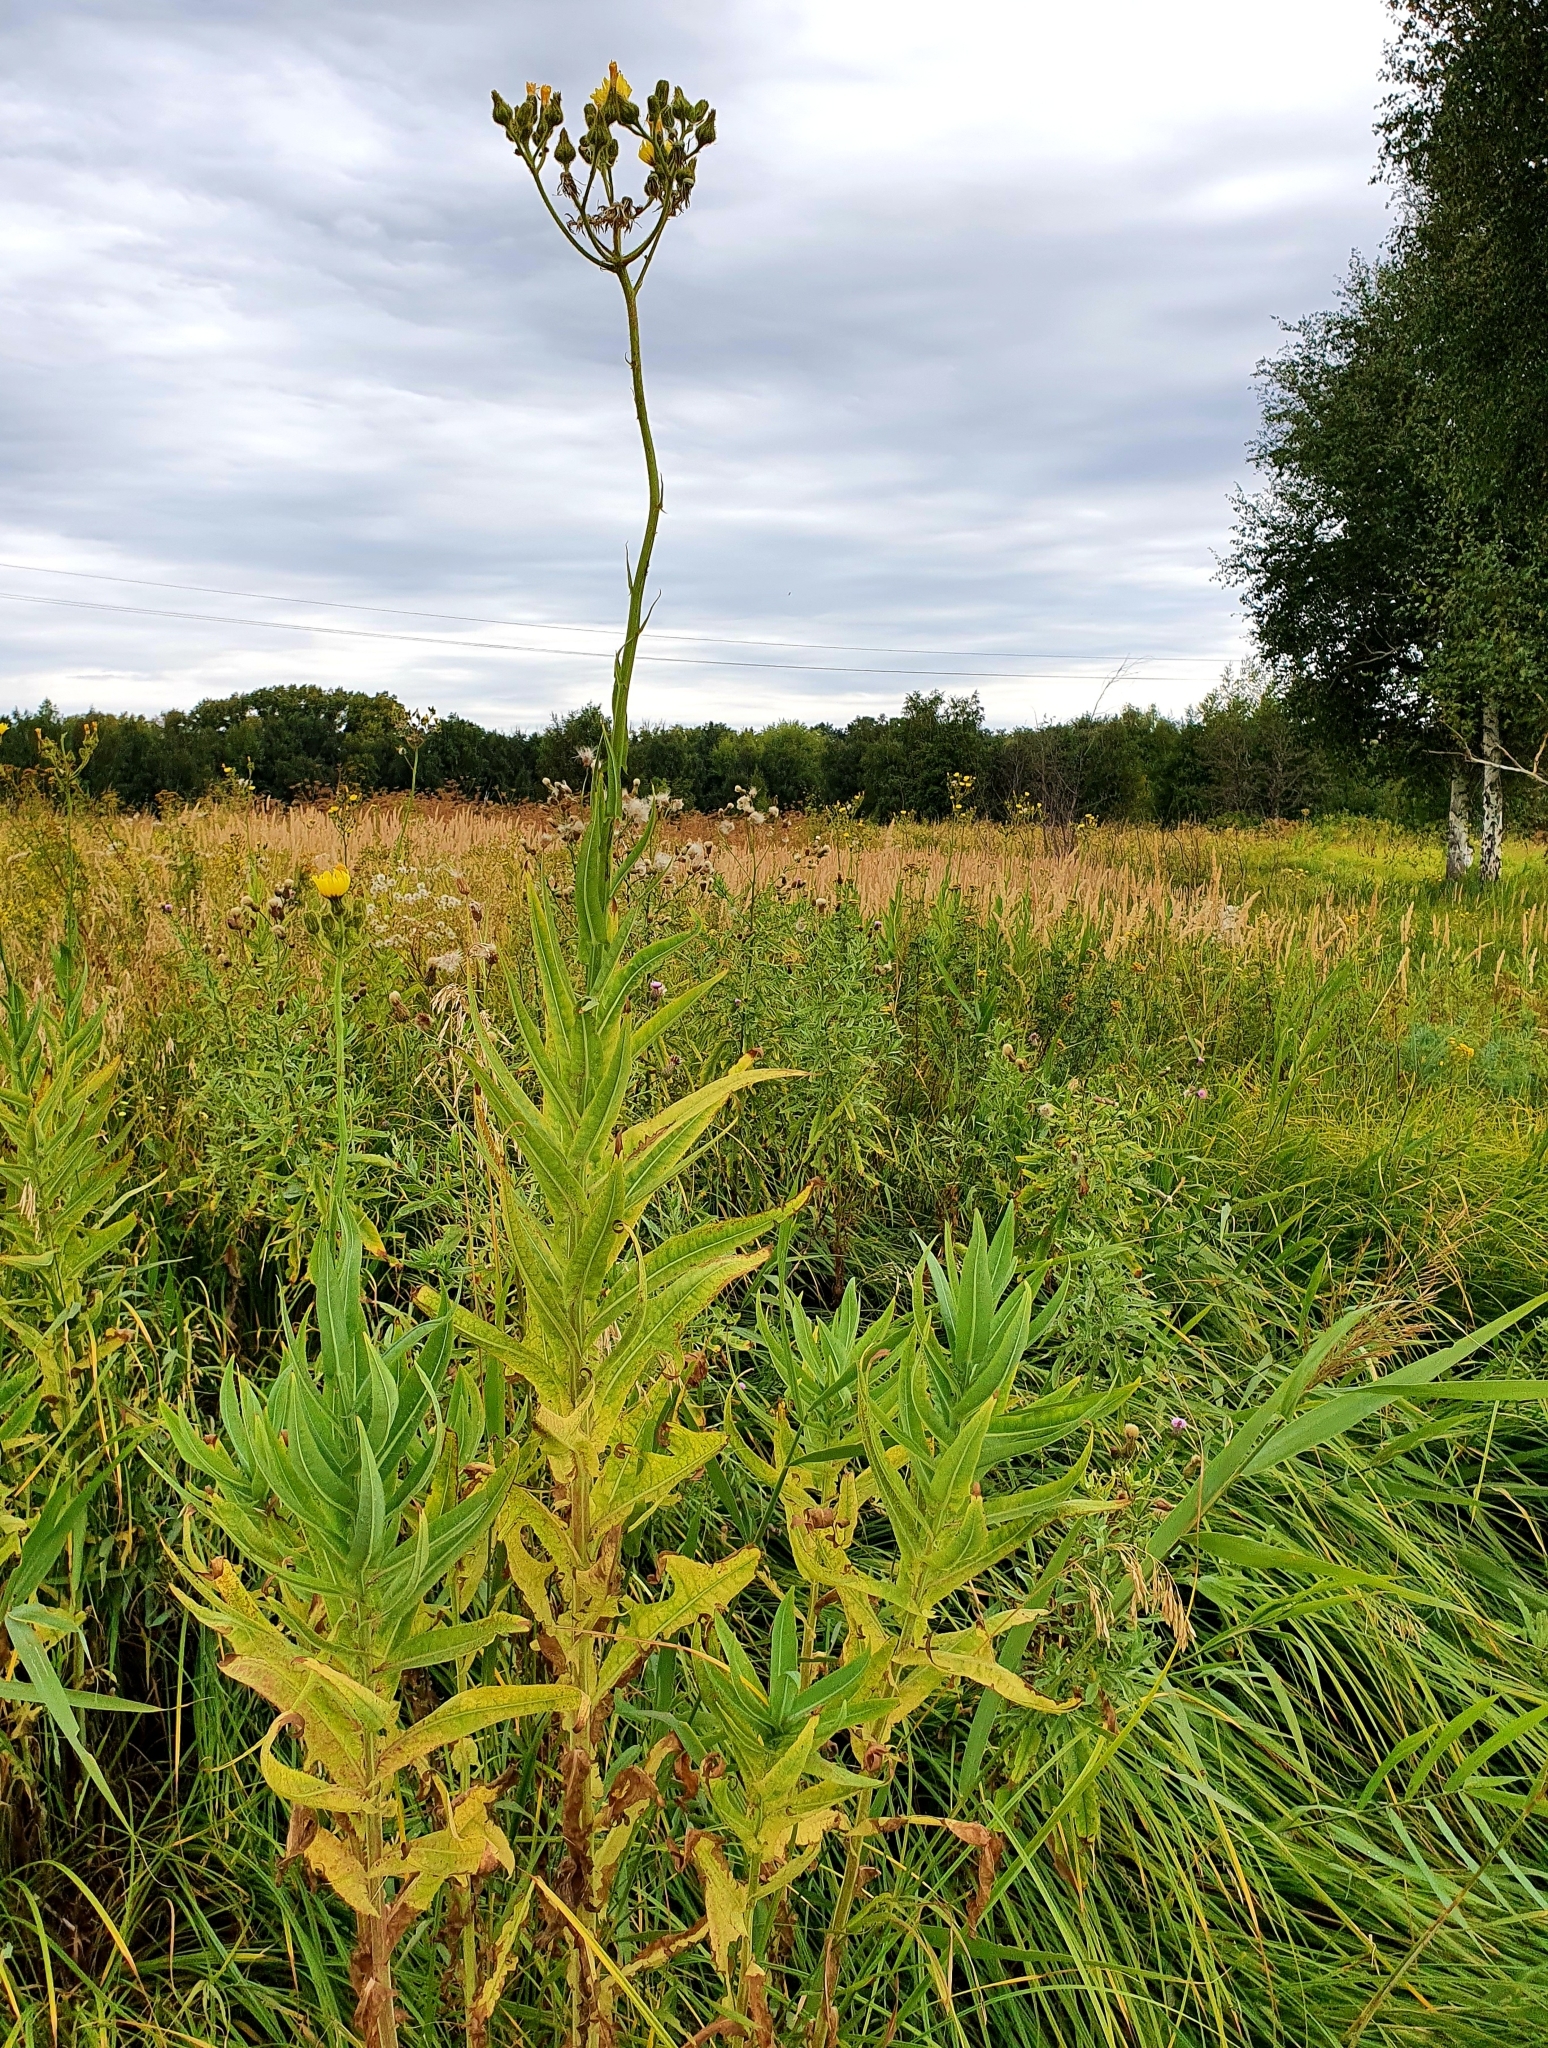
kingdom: Plantae
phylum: Tracheophyta
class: Magnoliopsida
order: Asterales
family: Asteraceae
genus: Sonchus
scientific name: Sonchus palustris
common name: Marsh sow-thistle
